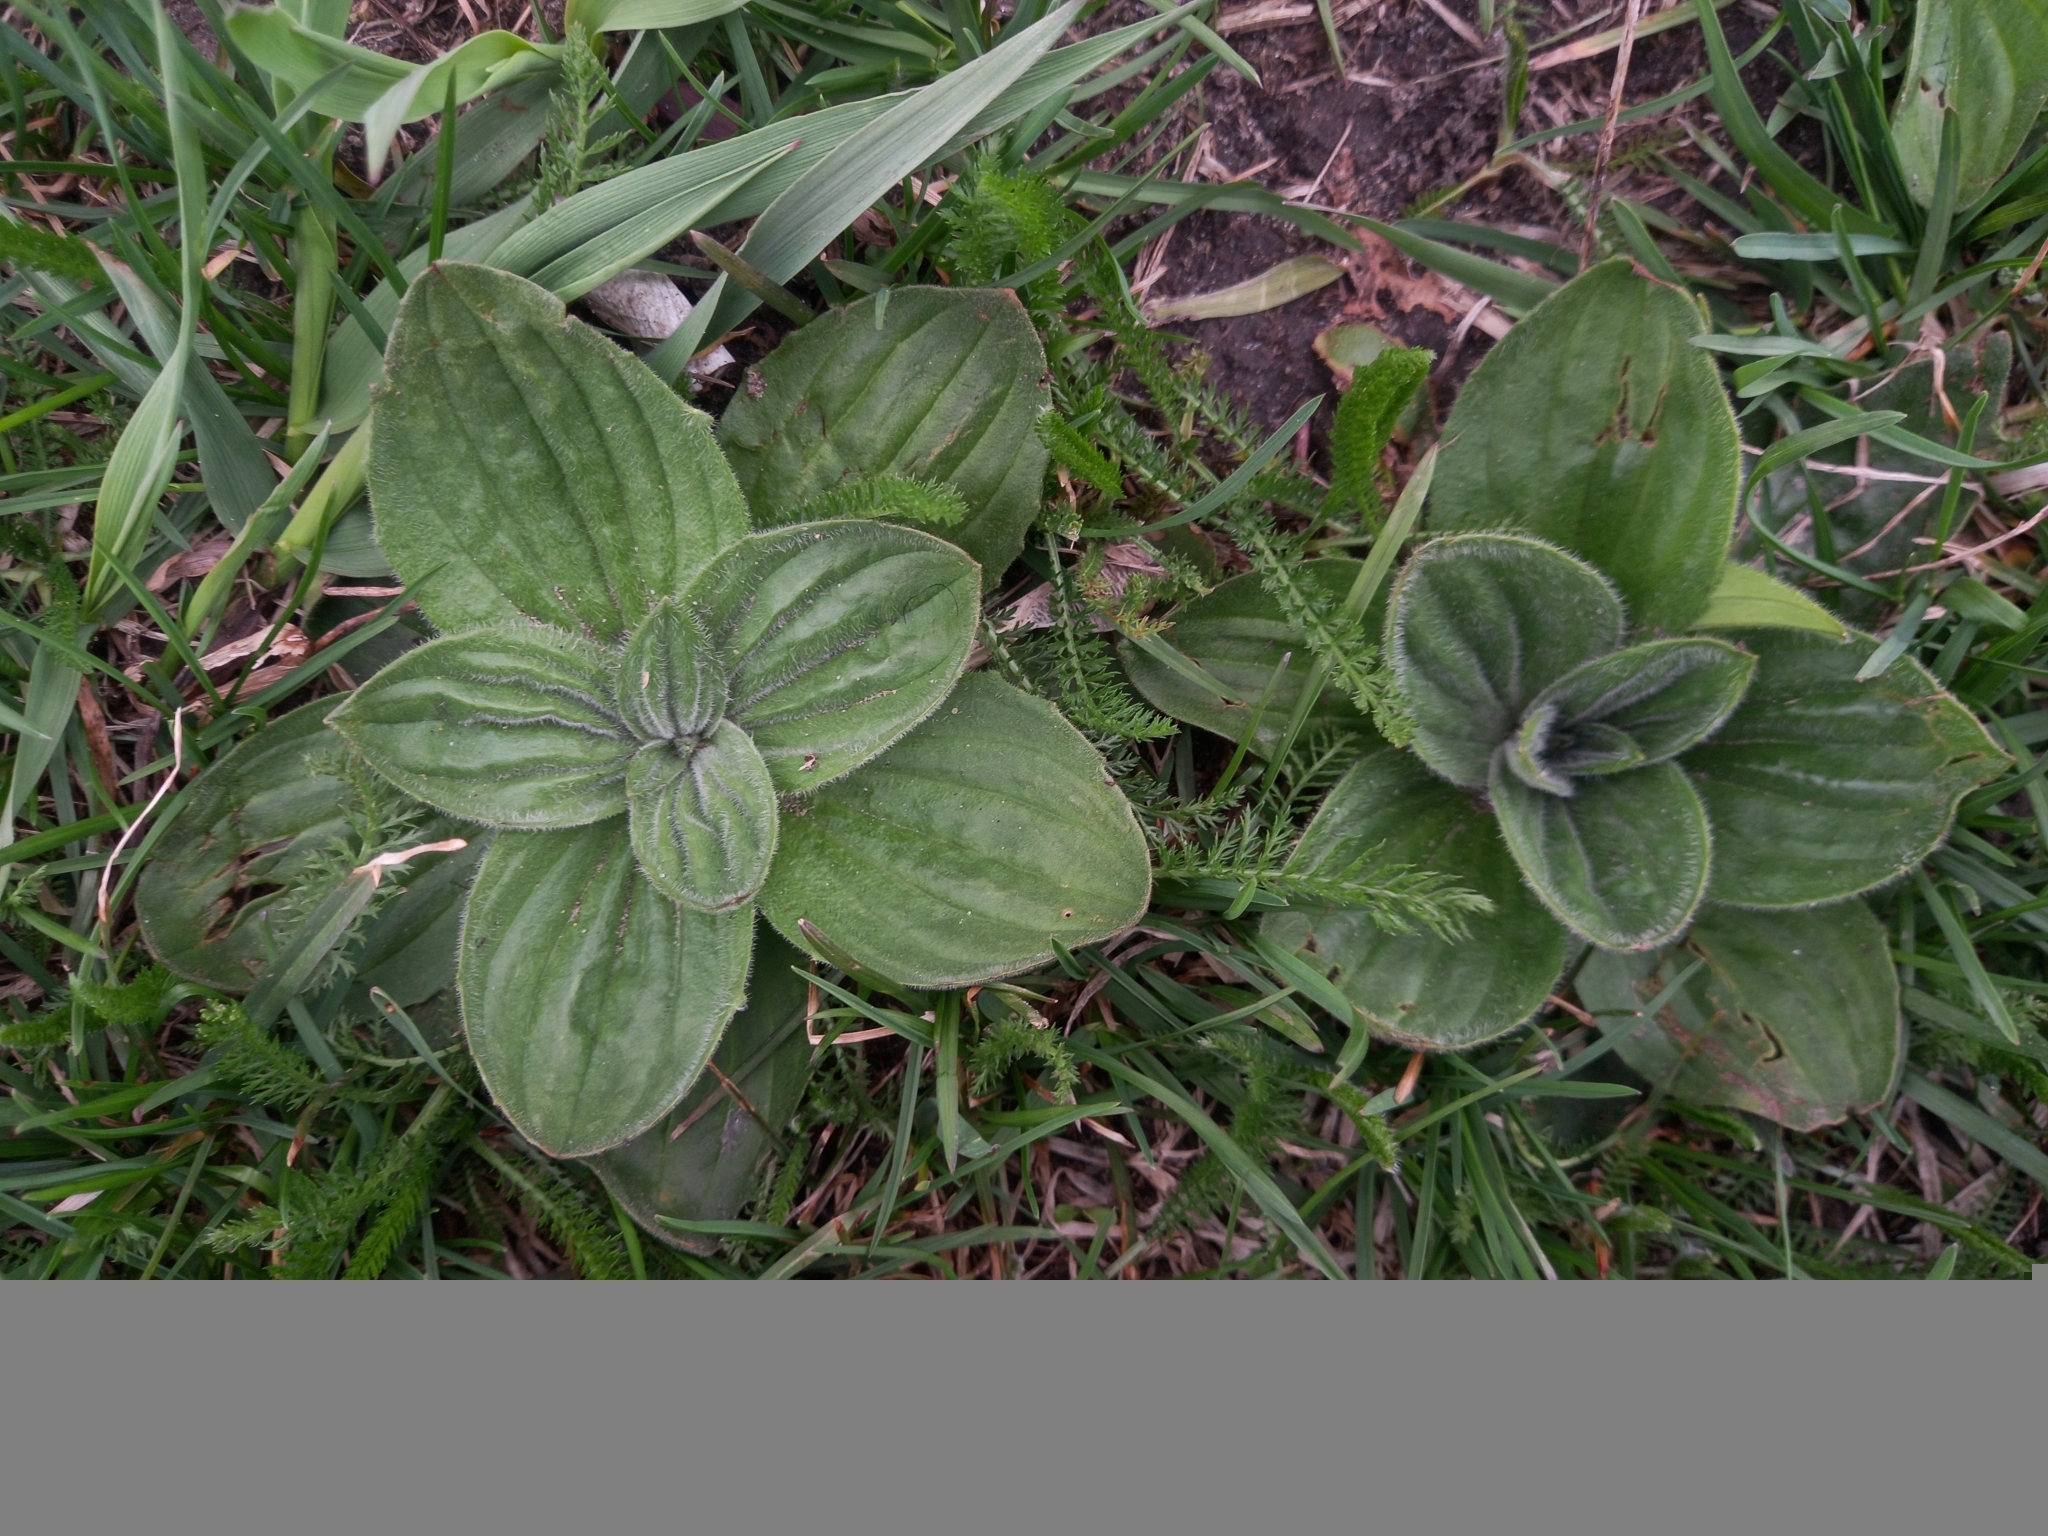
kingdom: Plantae
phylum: Tracheophyta
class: Magnoliopsida
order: Lamiales
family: Plantaginaceae
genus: Plantago
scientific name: Plantago media
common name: Hoary plantain
